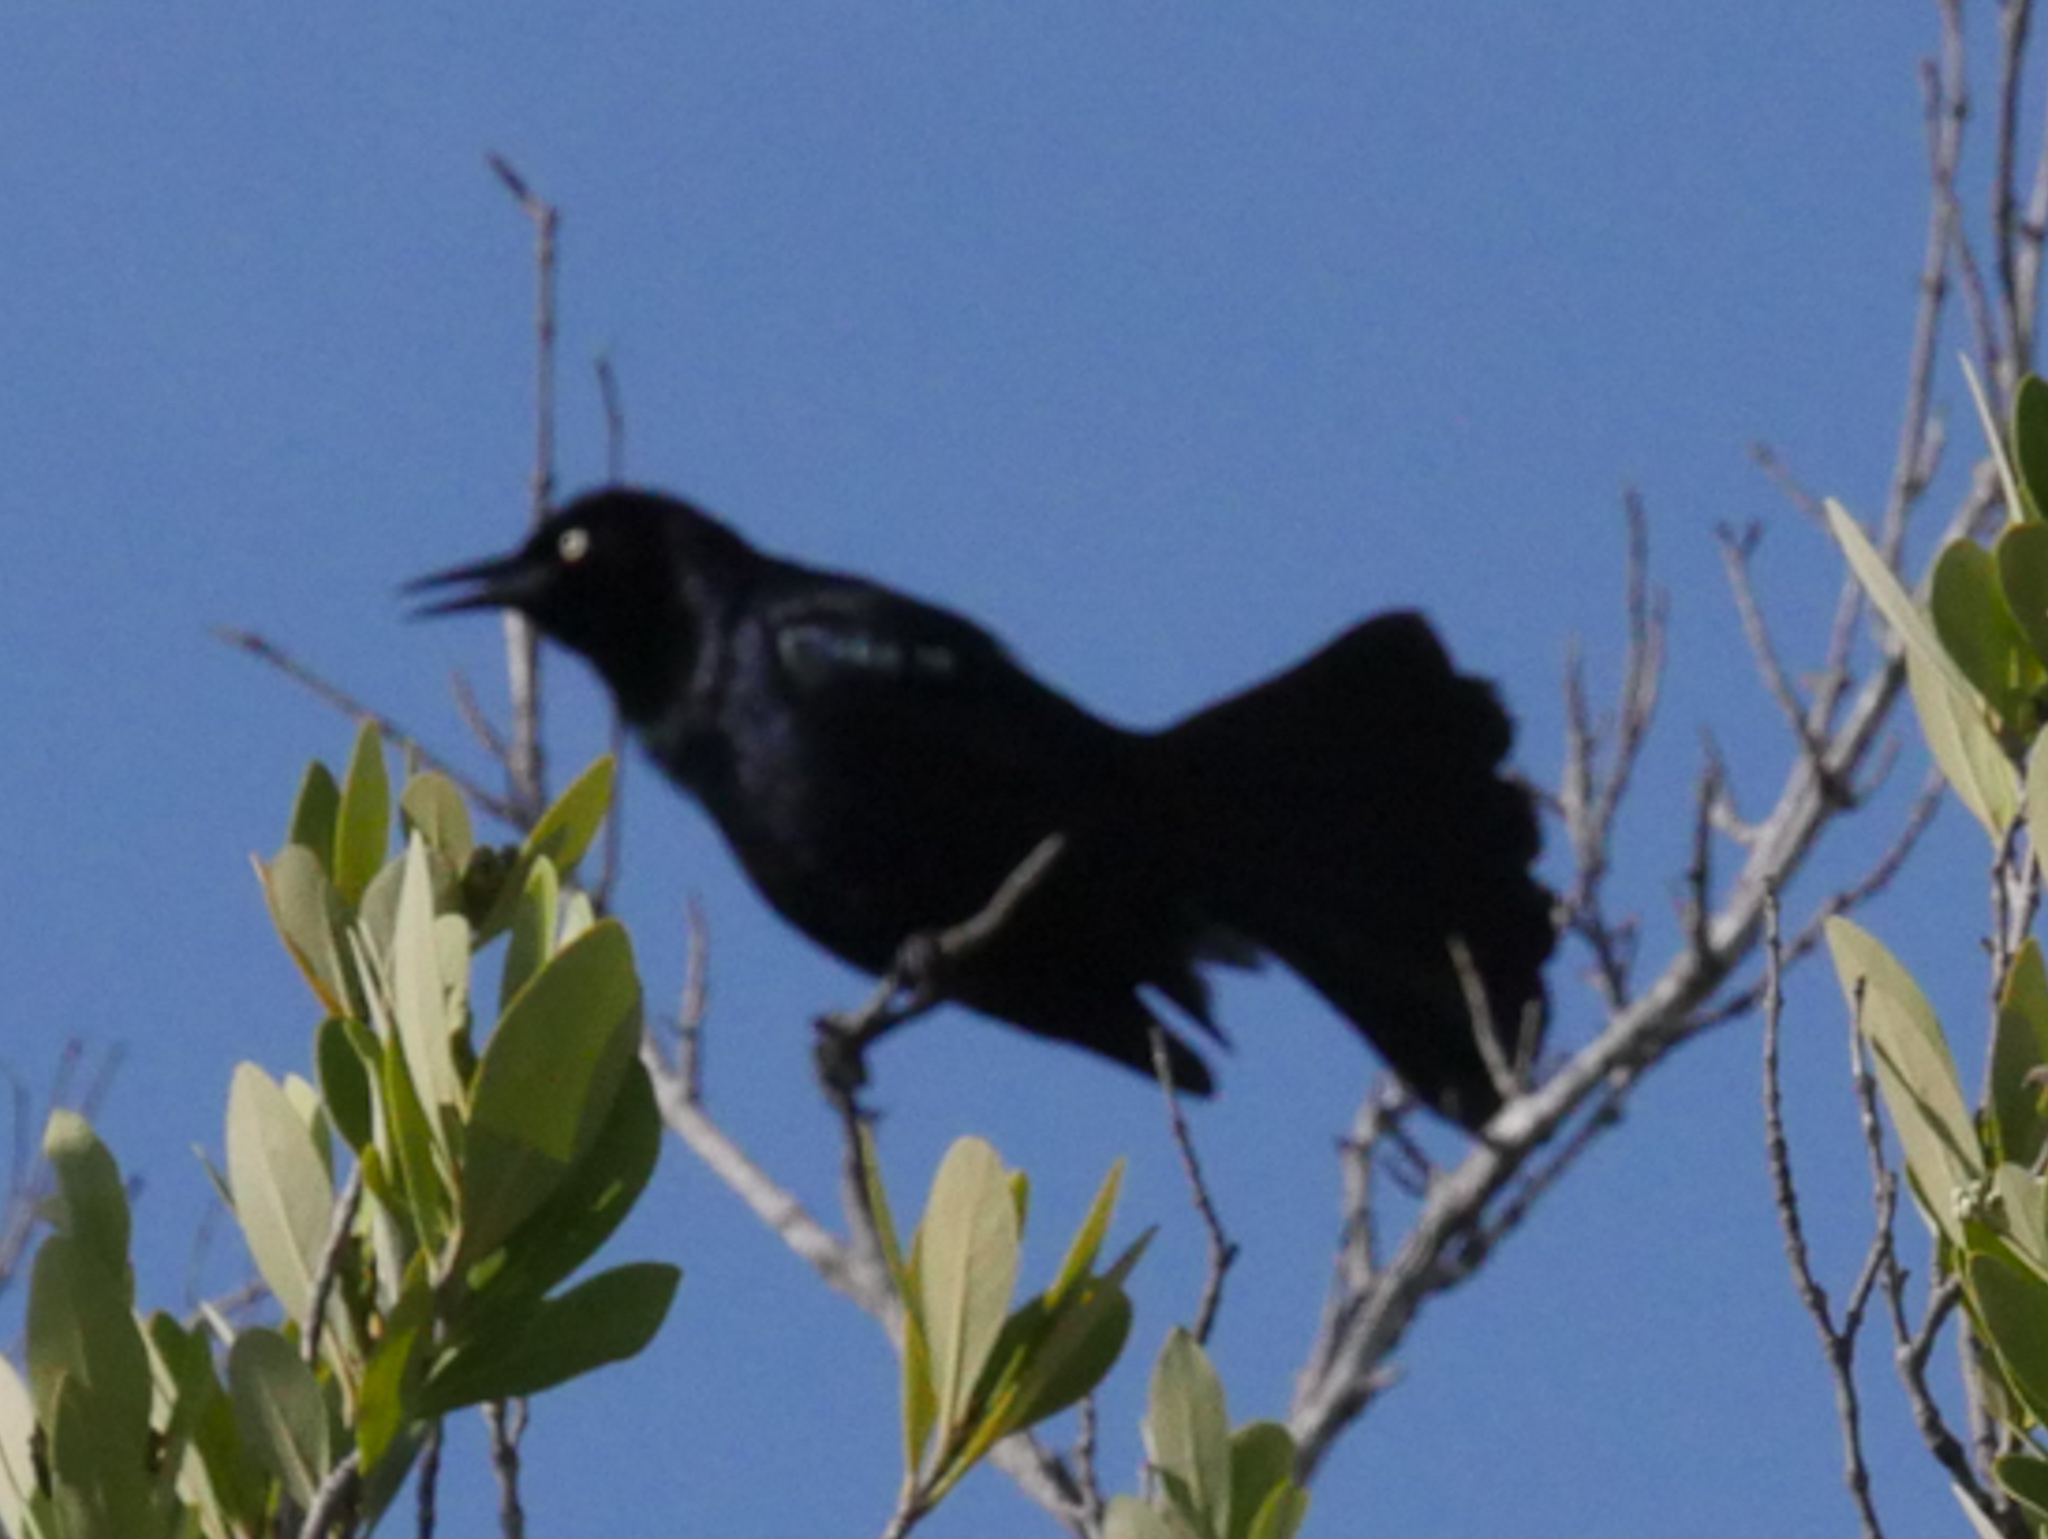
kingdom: Animalia
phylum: Chordata
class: Aves
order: Passeriformes
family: Icteridae
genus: Quiscalus
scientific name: Quiscalus niger
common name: Greater antillean grackle
